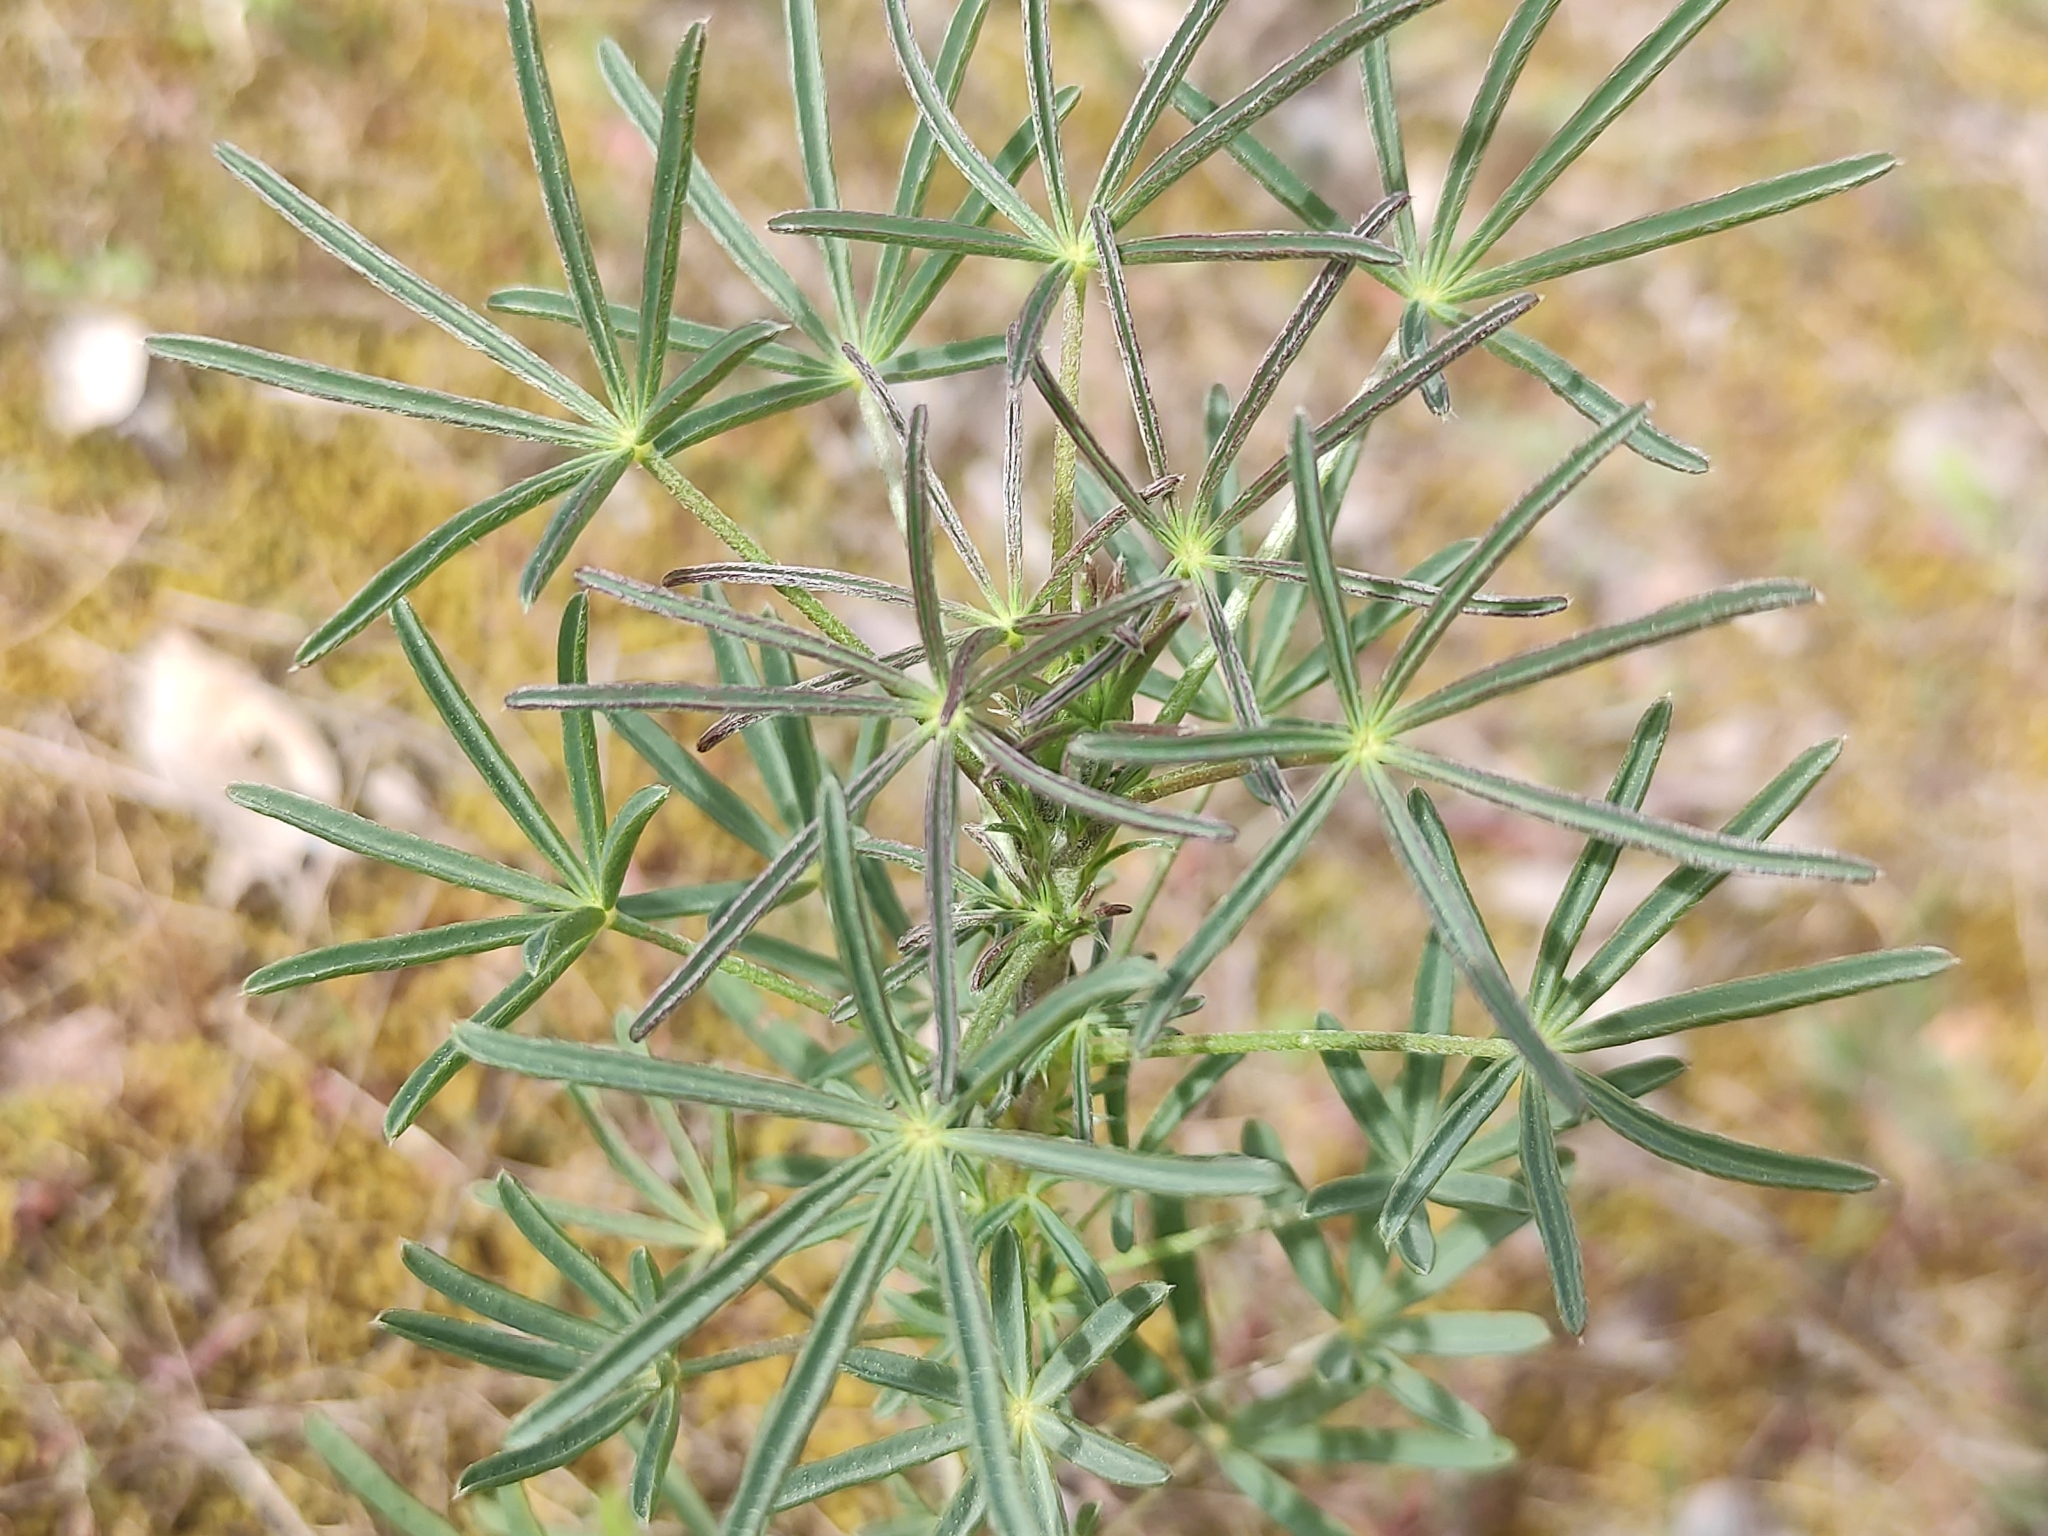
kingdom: Plantae
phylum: Tracheophyta
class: Magnoliopsida
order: Fabales
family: Fabaceae
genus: Lupinus
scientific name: Lupinus angustifolius
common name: Narrow-leaved lupin
